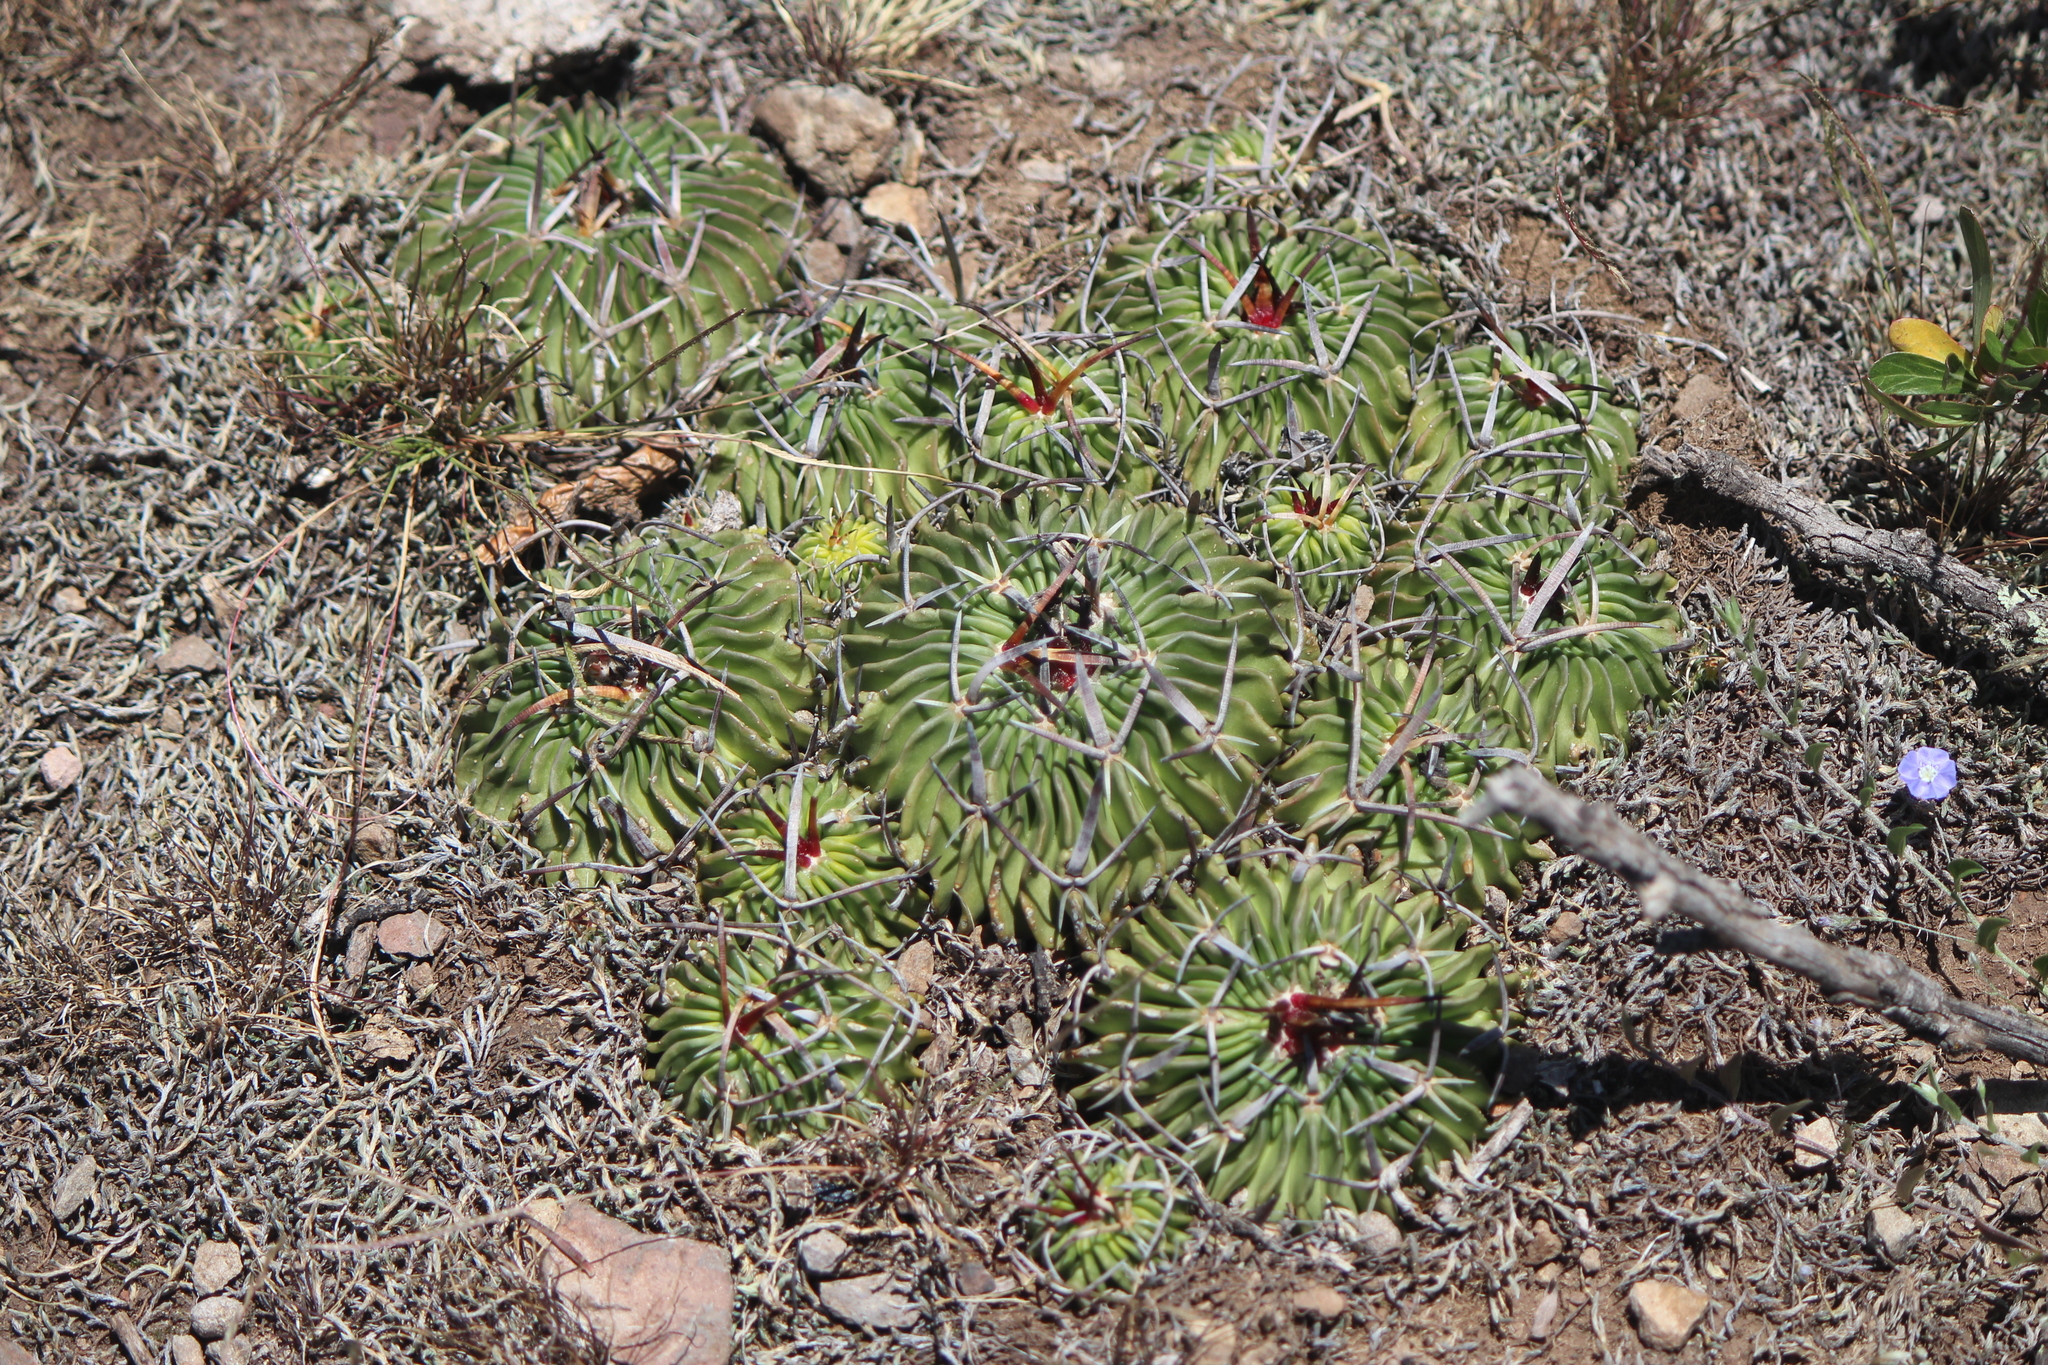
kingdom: Plantae
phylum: Tracheophyta
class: Magnoliopsida
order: Caryophyllales
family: Cactaceae
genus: Stenocactus
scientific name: Stenocactus crispatus
